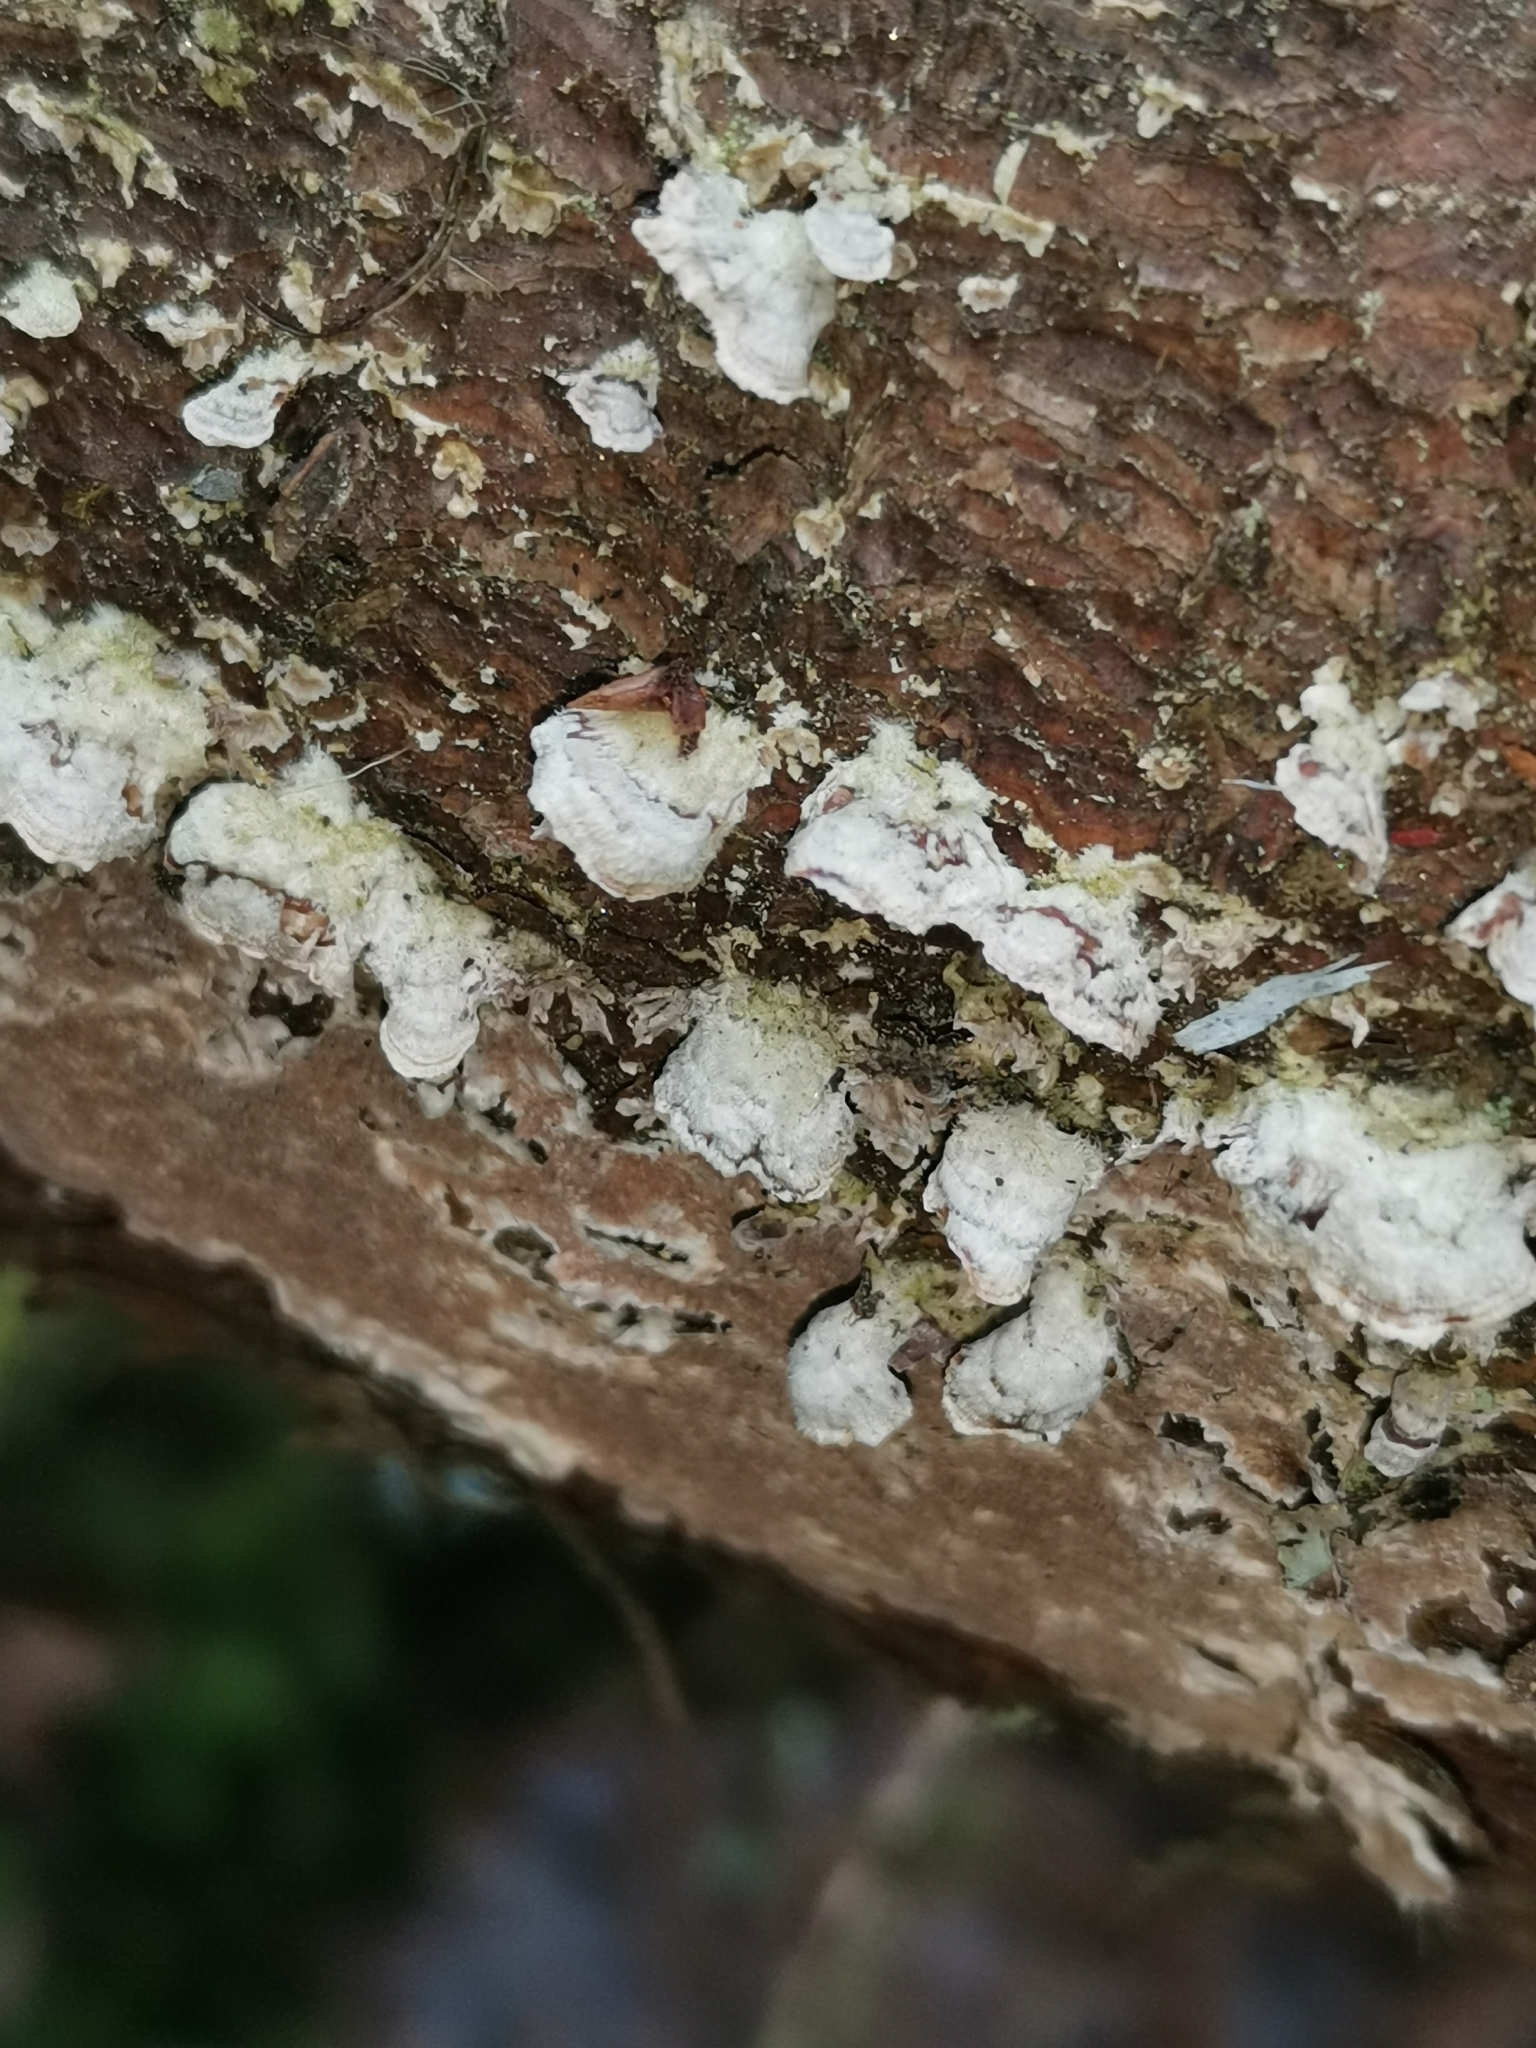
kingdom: Fungi
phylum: Basidiomycota
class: Agaricomycetes
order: Hymenochaetales
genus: Trichaptum
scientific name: Trichaptum abietinum
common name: Purplepore bracket
